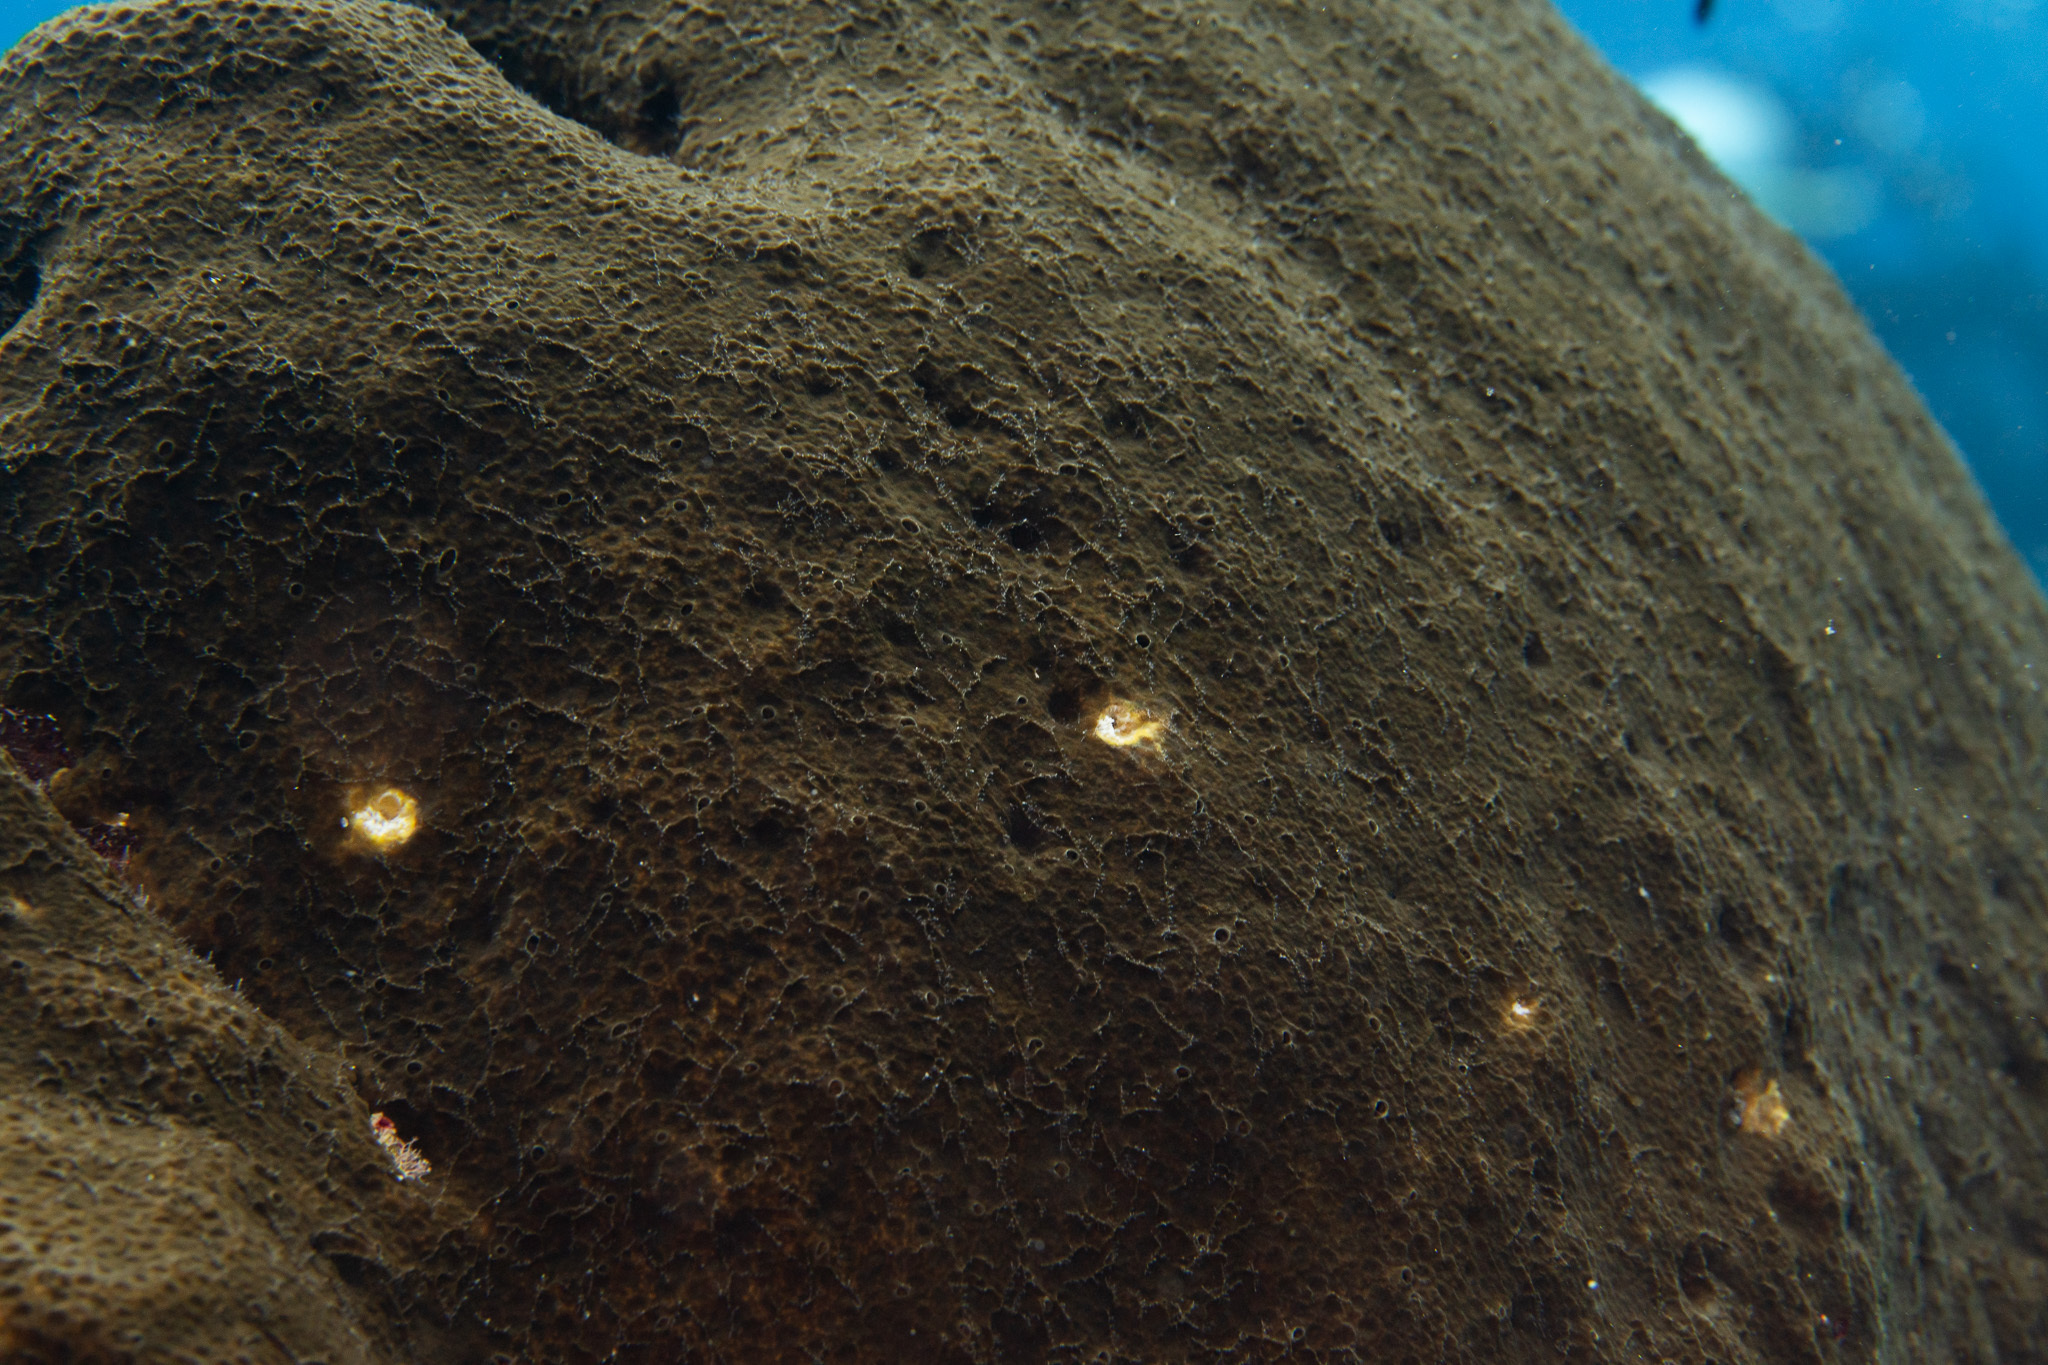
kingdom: Animalia
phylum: Porifera
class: Demospongiae
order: Clionaida
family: Clionaidae
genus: Cliona
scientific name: Cliona caribbaea
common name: Green boring sponge
